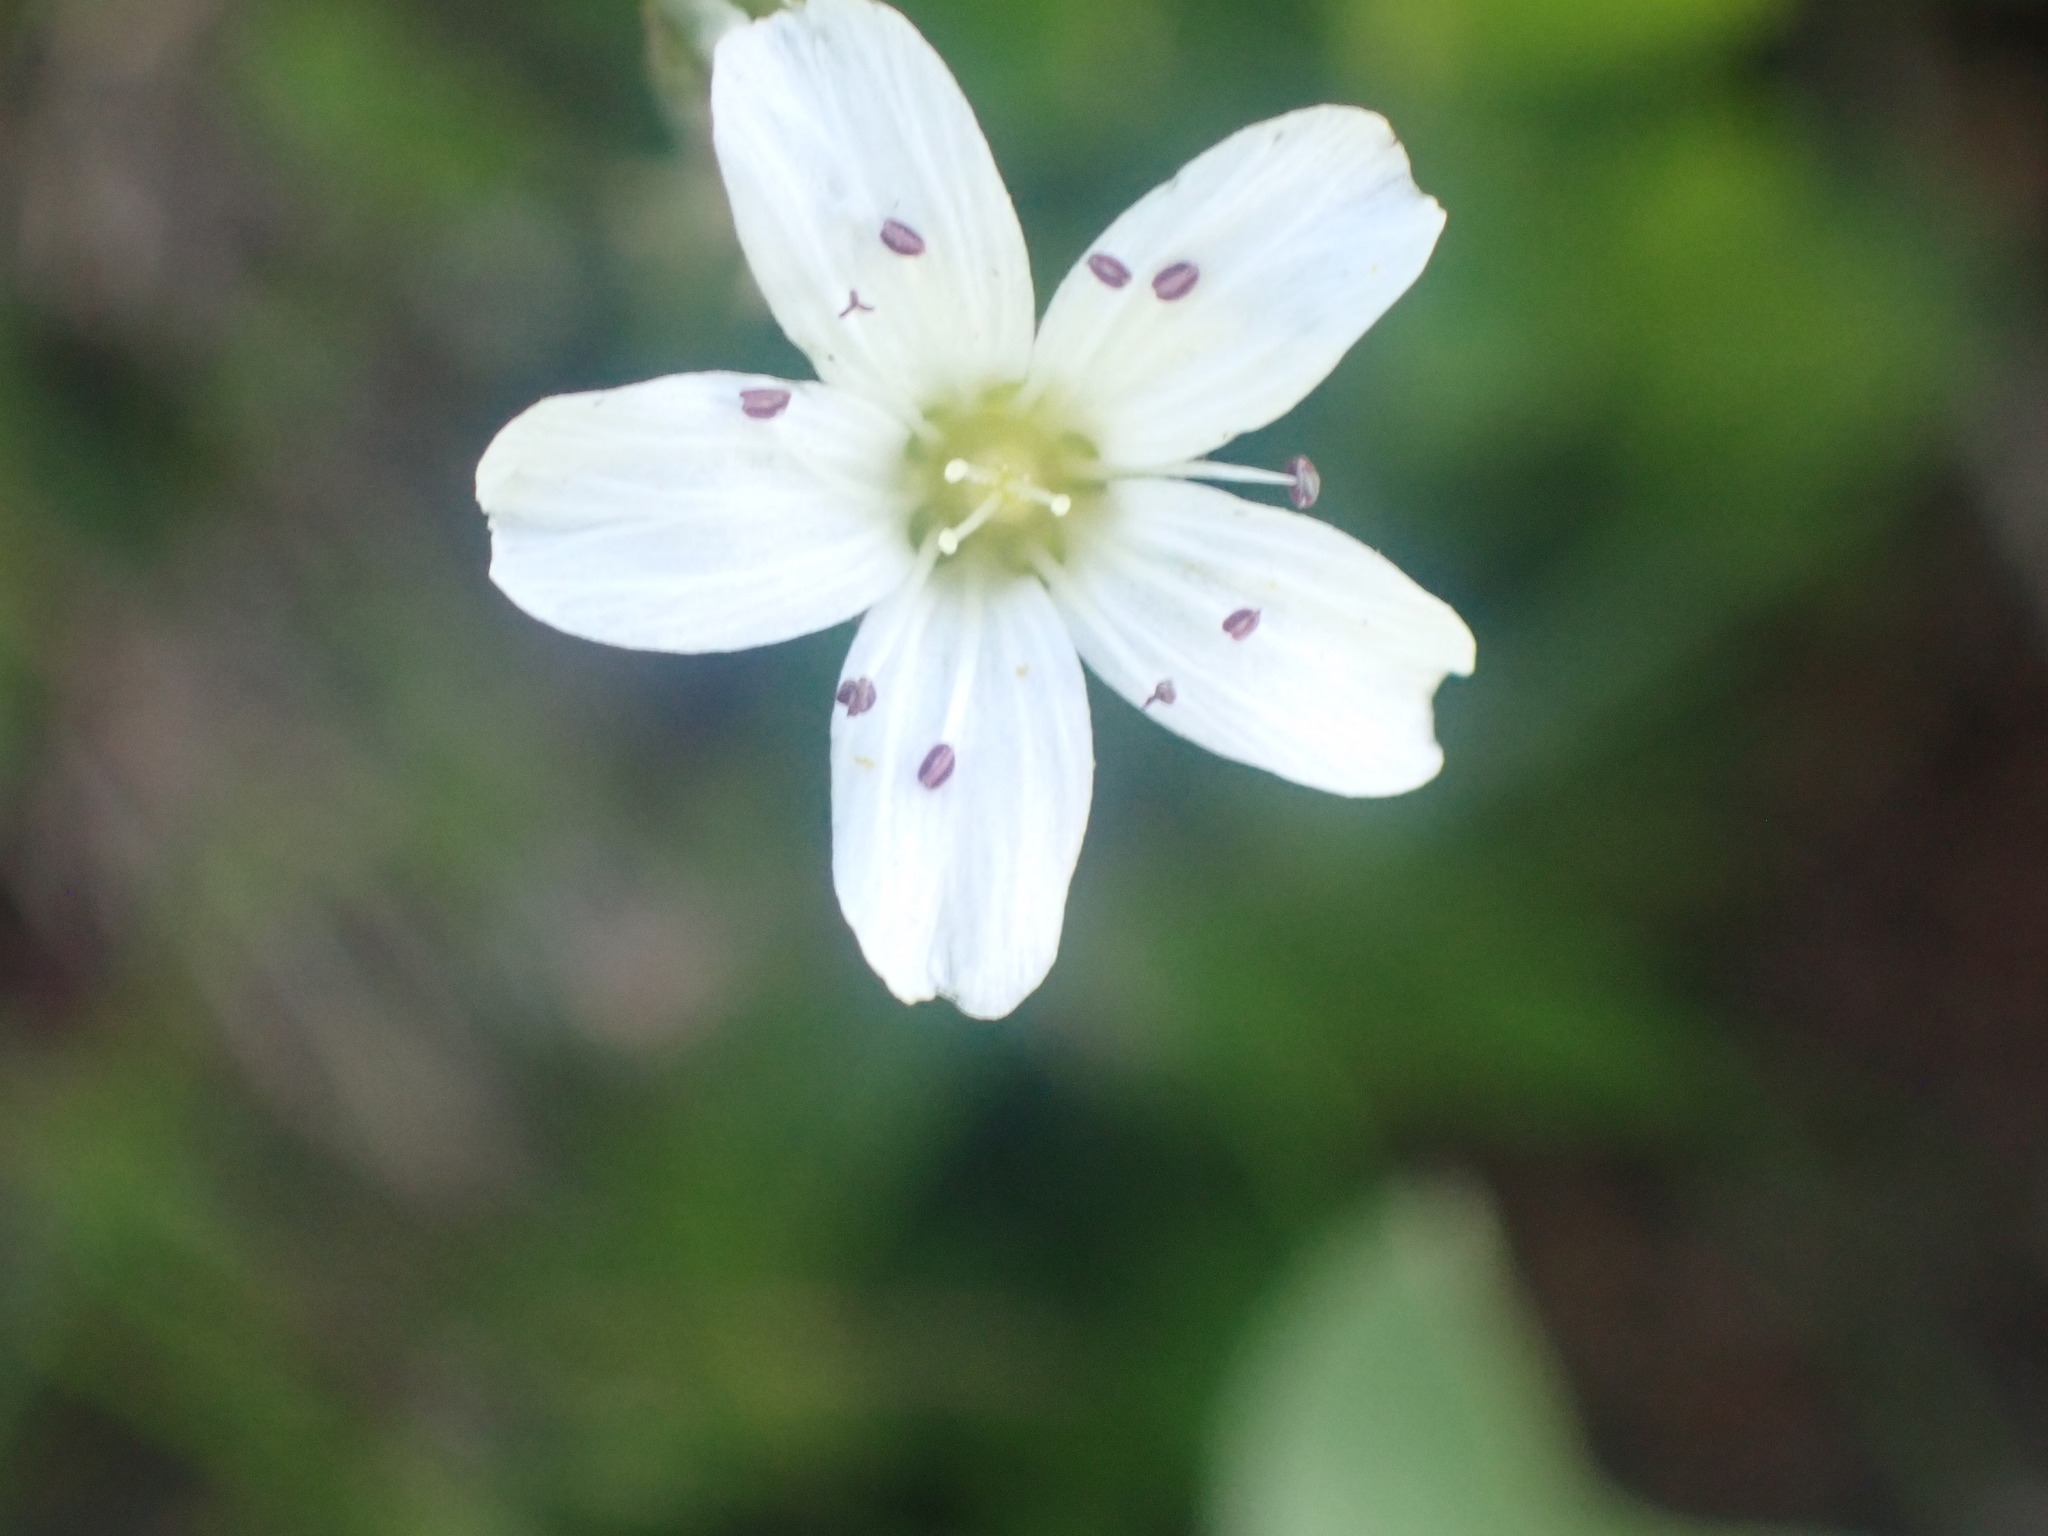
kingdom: Plantae
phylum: Tracheophyta
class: Magnoliopsida
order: Caryophyllales
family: Caryophyllaceae
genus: Eremogone
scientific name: Eremogone capillaris
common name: Slender mountain sandwort
